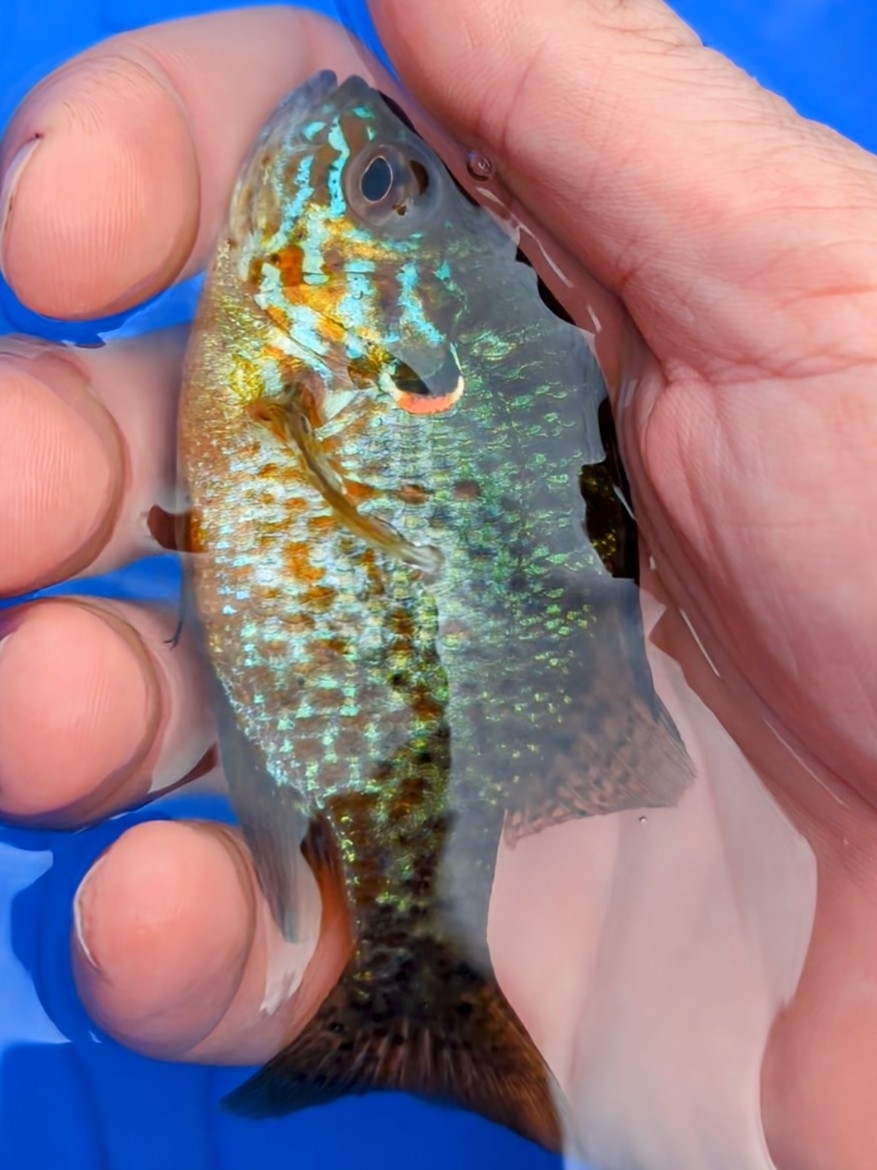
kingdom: Animalia
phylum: Chordata
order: Perciformes
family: Centrarchidae
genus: Lepomis
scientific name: Lepomis gibbosus
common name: Pumpkinseed
